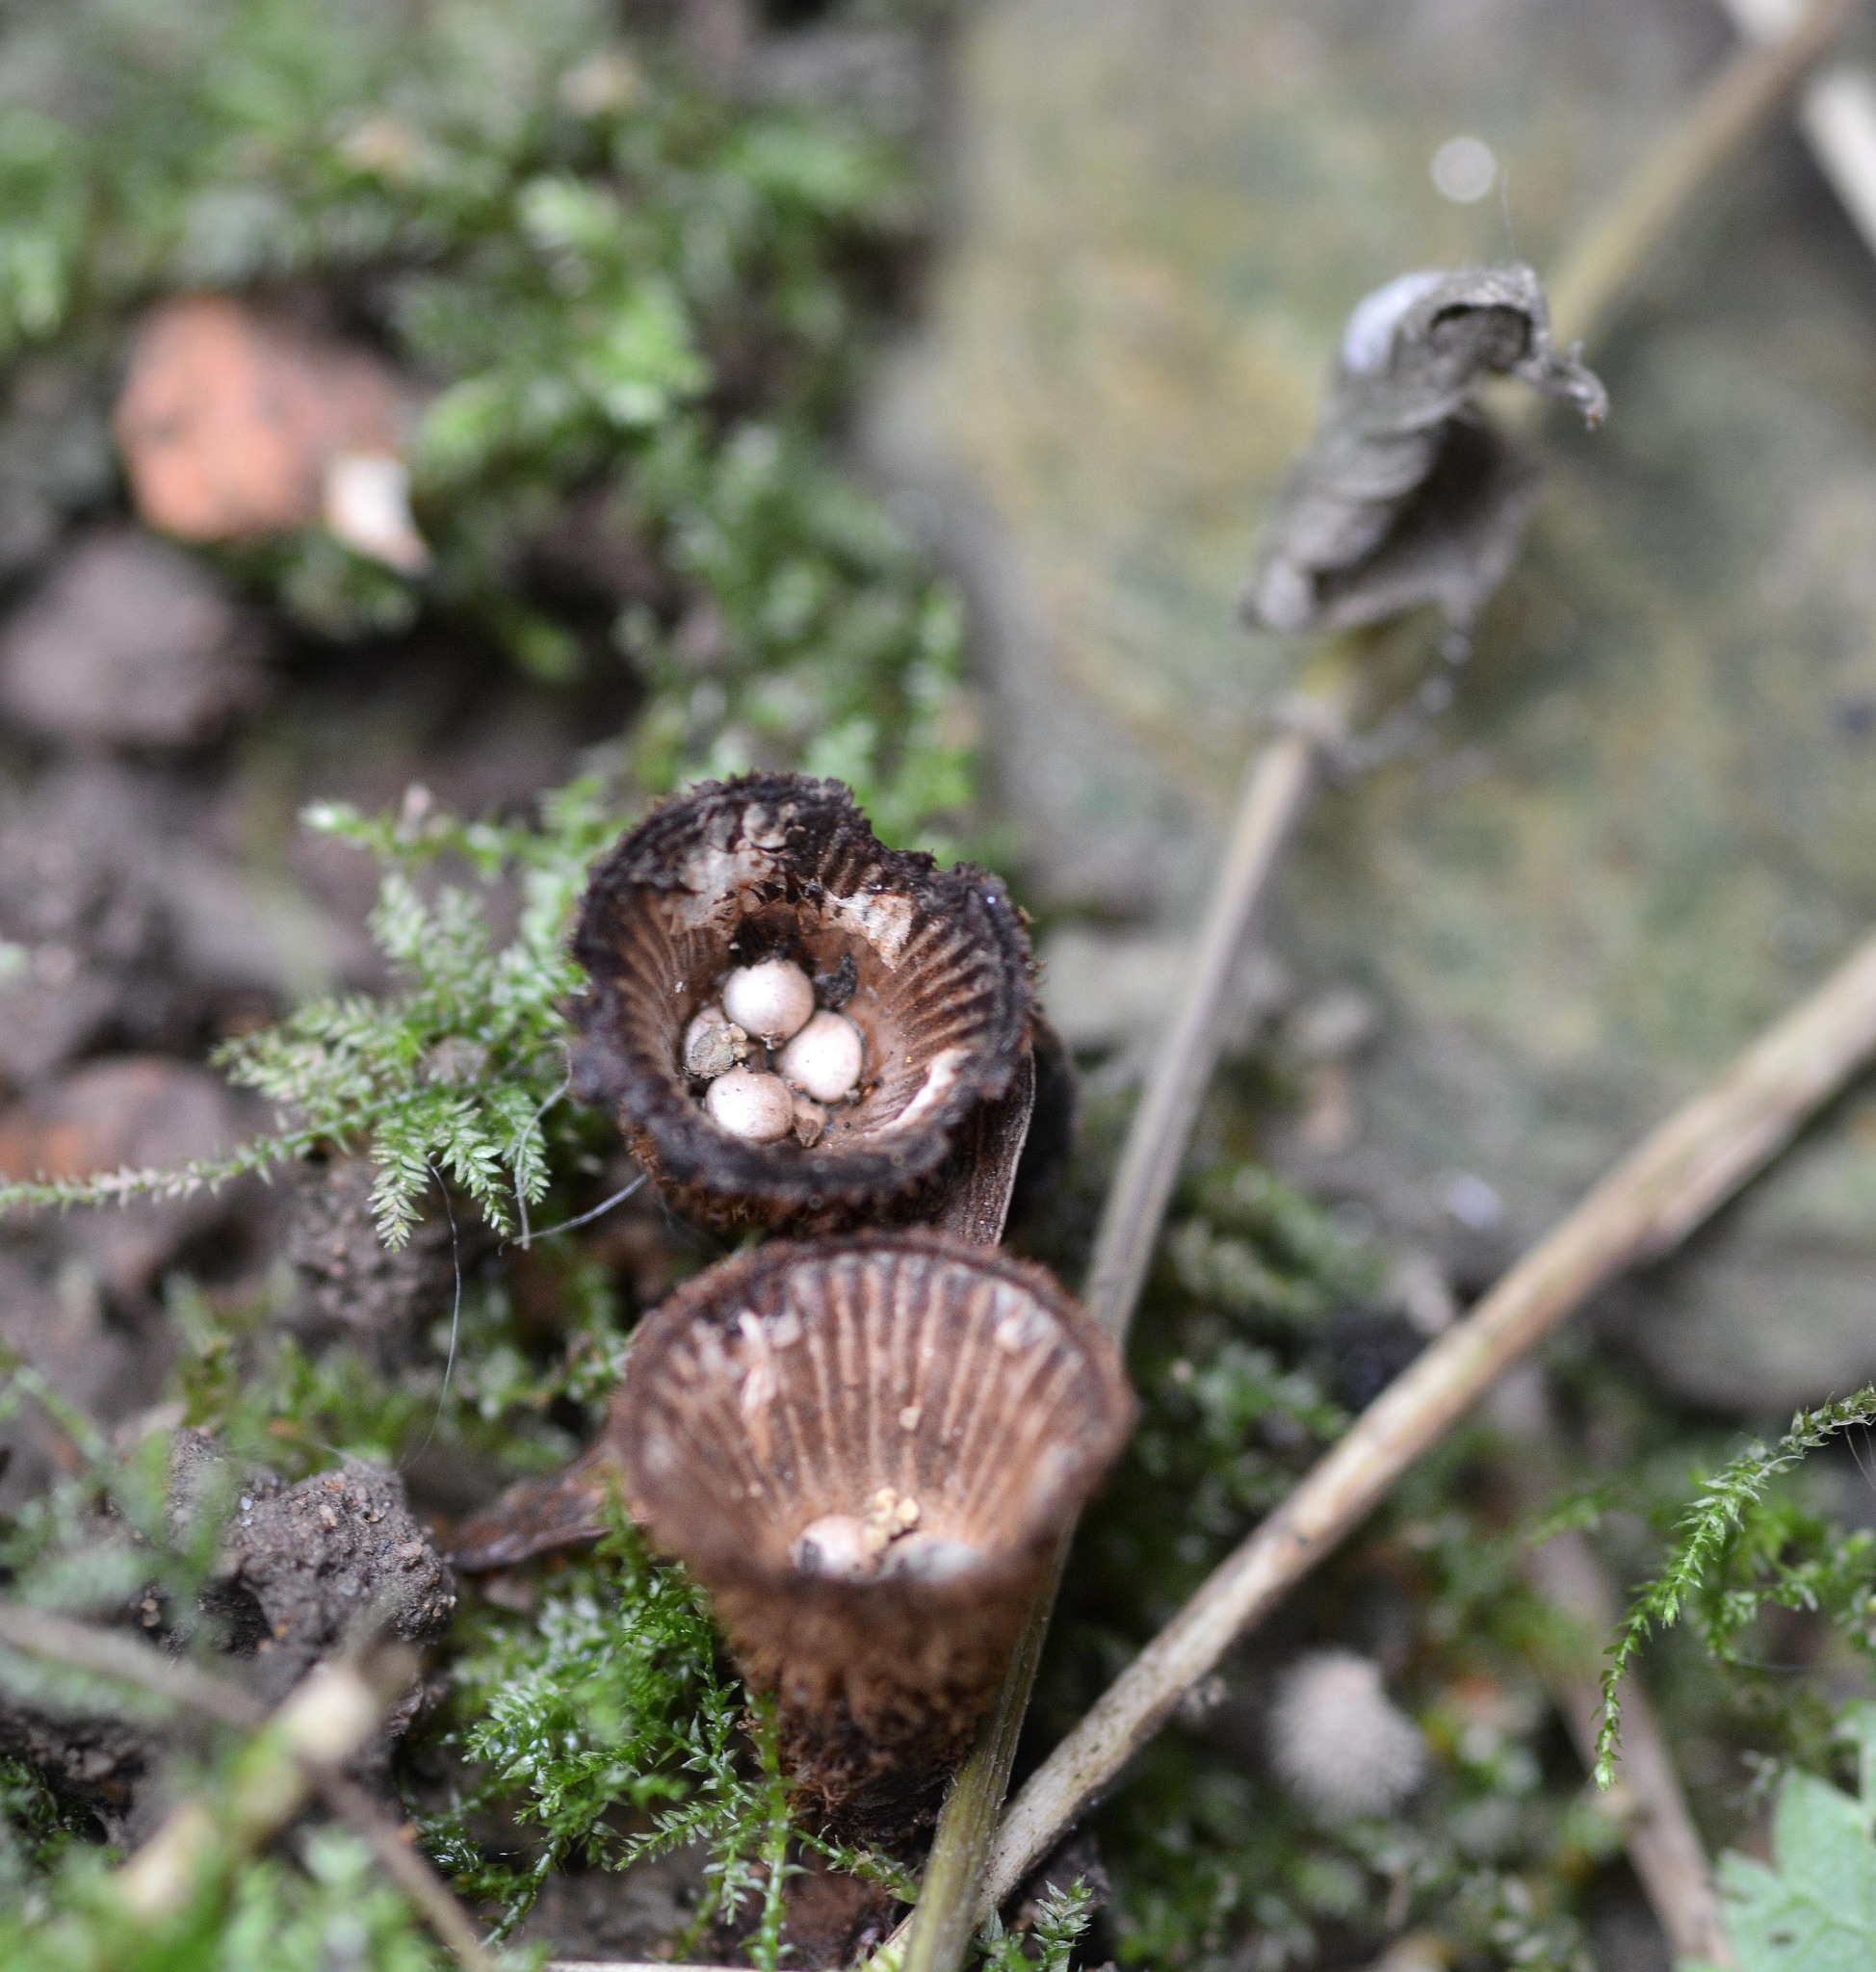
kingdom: Fungi
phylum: Basidiomycota
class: Agaricomycetes
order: Agaricales
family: Agaricaceae
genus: Cyathus
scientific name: Cyathus striatus
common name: Fluted bird's nest
